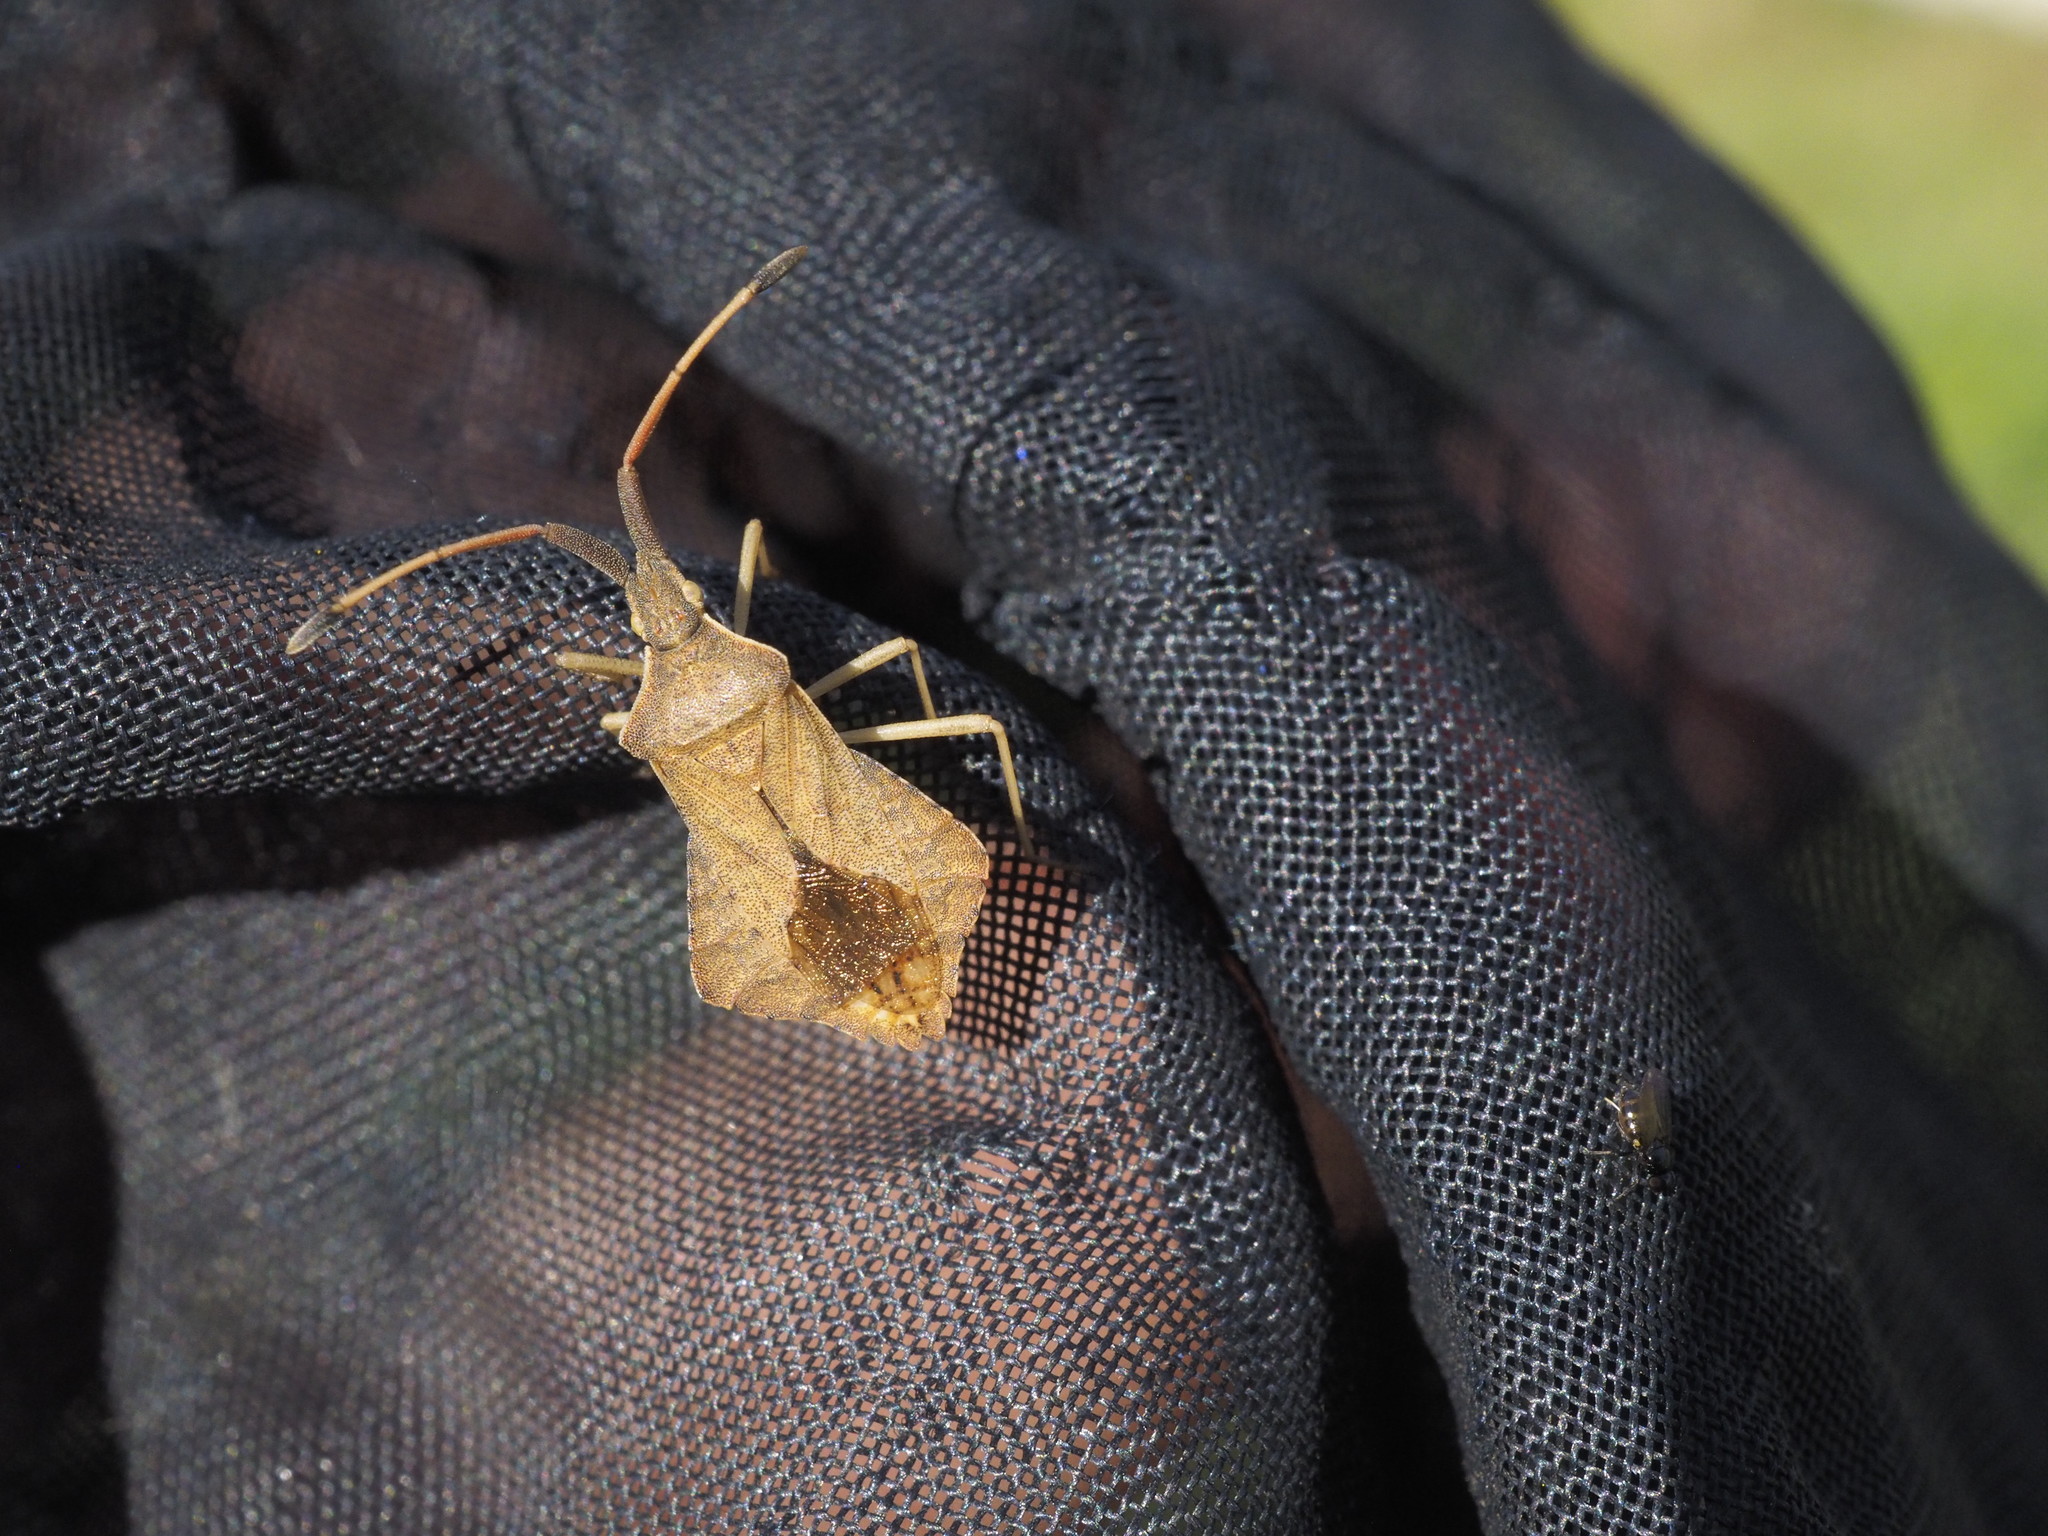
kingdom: Animalia
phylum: Arthropoda
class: Insecta
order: Hemiptera
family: Coreidae
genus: Syromastus
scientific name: Syromastus rhombeus
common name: Rhombic leatherbug
